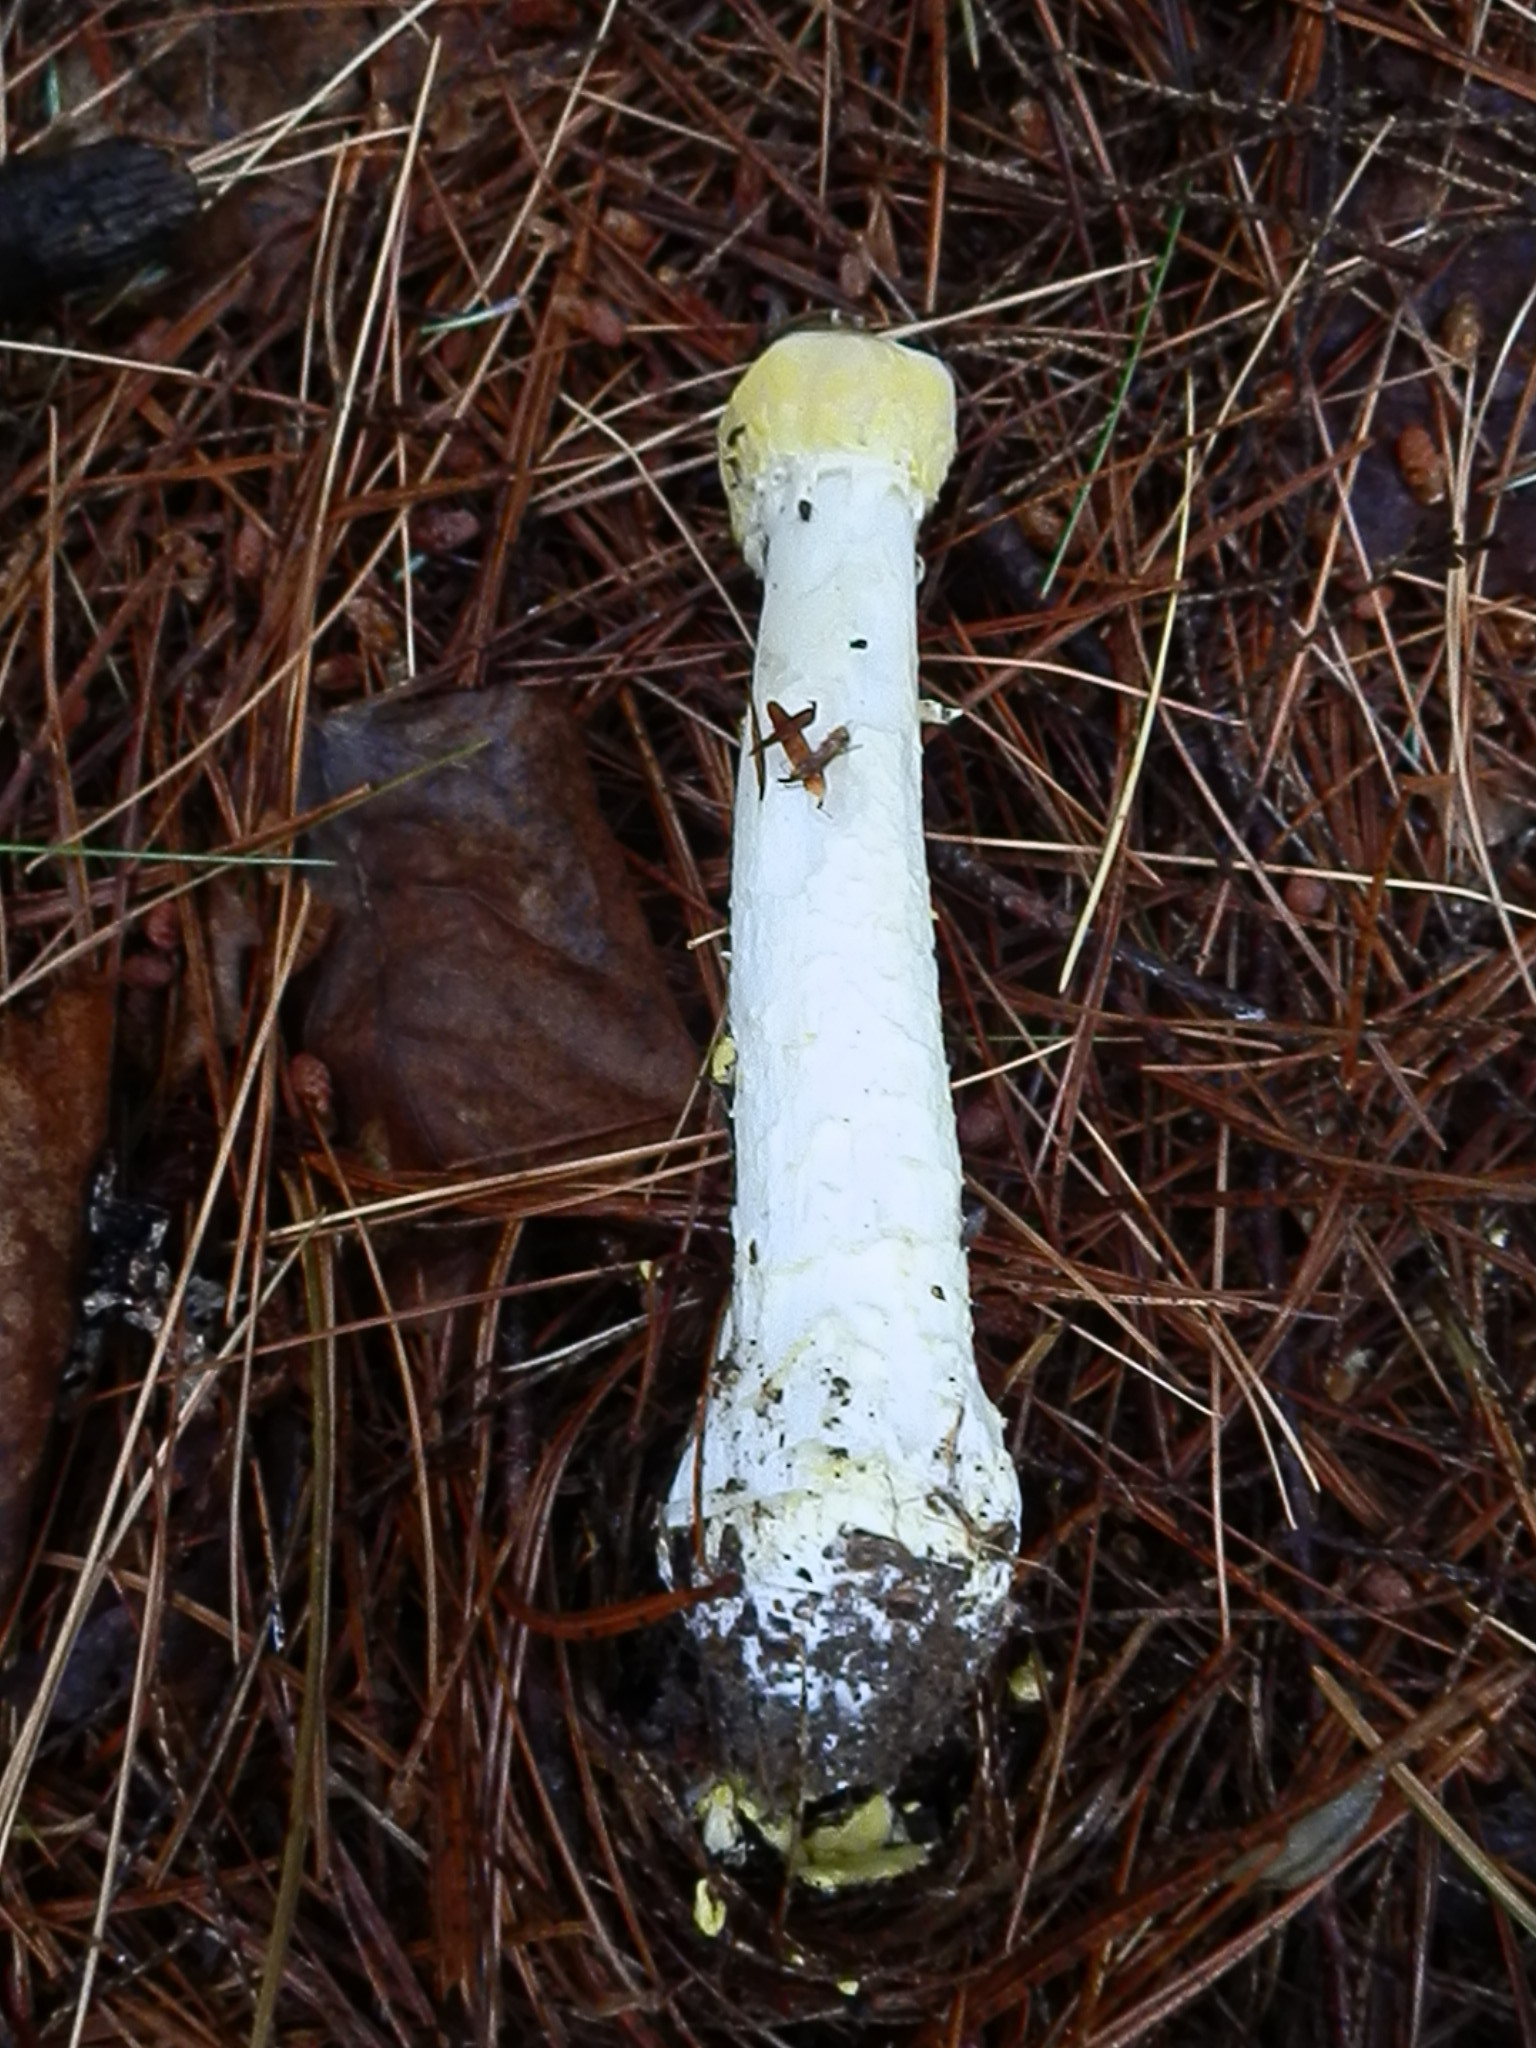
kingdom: Fungi
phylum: Ascomycota
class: Sordariomycetes
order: Hypocreales
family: Hypocreaceae
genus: Hypomyces
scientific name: Hypomyces hyalinus
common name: Amanita mold
